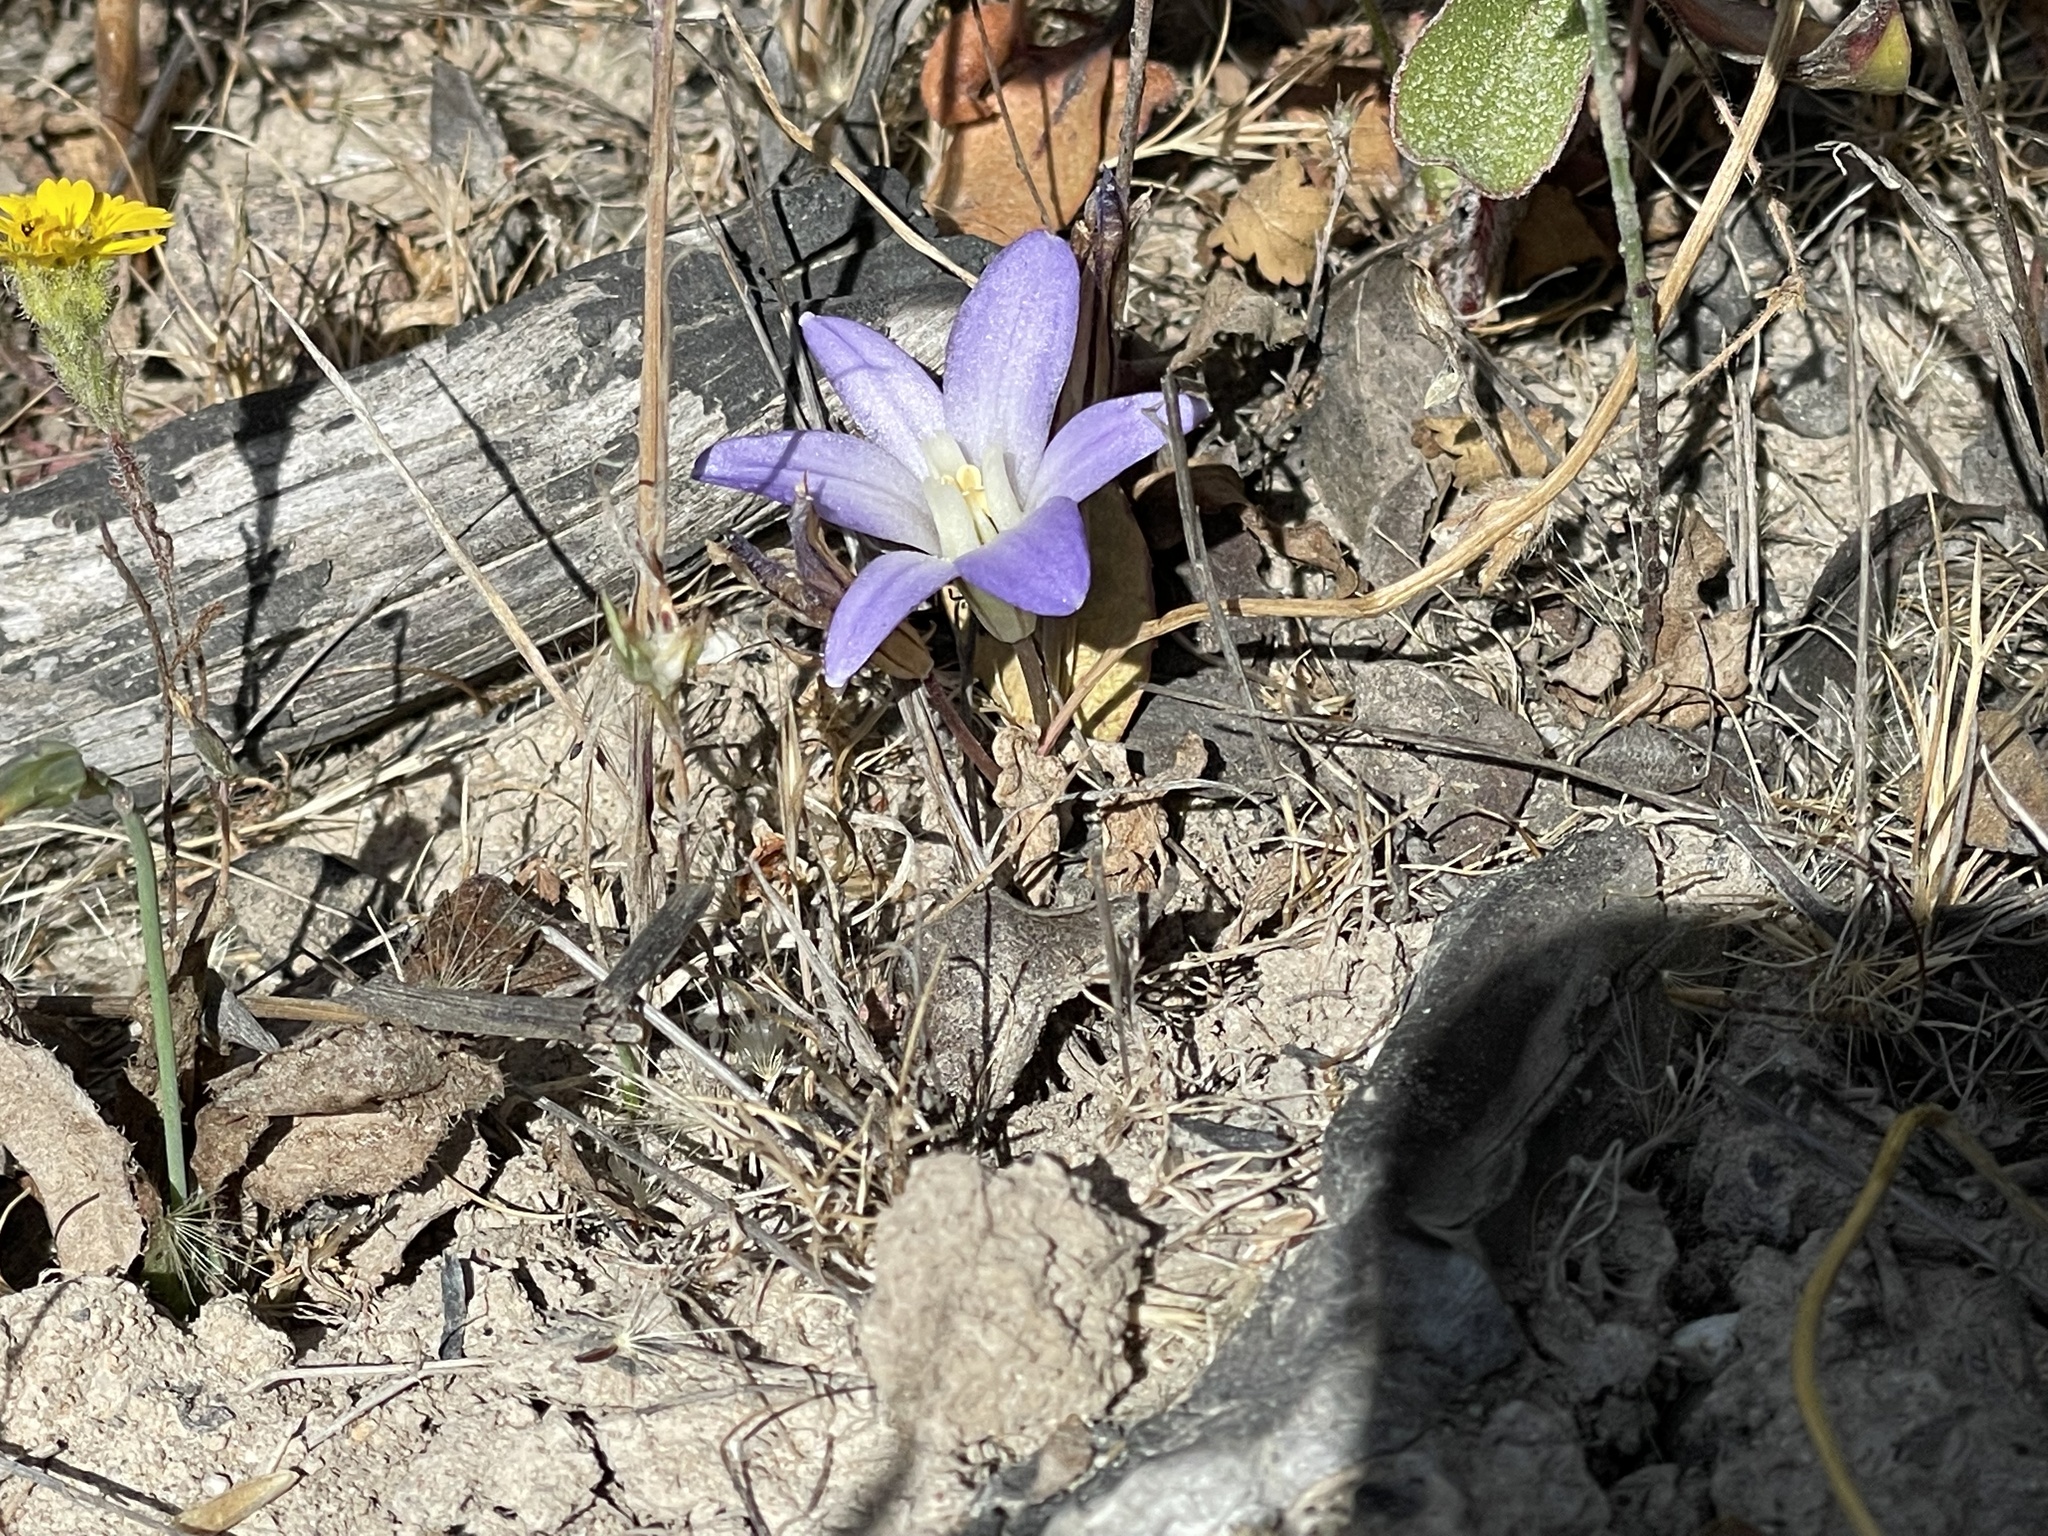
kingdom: Plantae
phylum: Tracheophyta
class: Liliopsida
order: Asparagales
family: Asparagaceae
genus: Brodiaea
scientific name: Brodiaea terrestris
